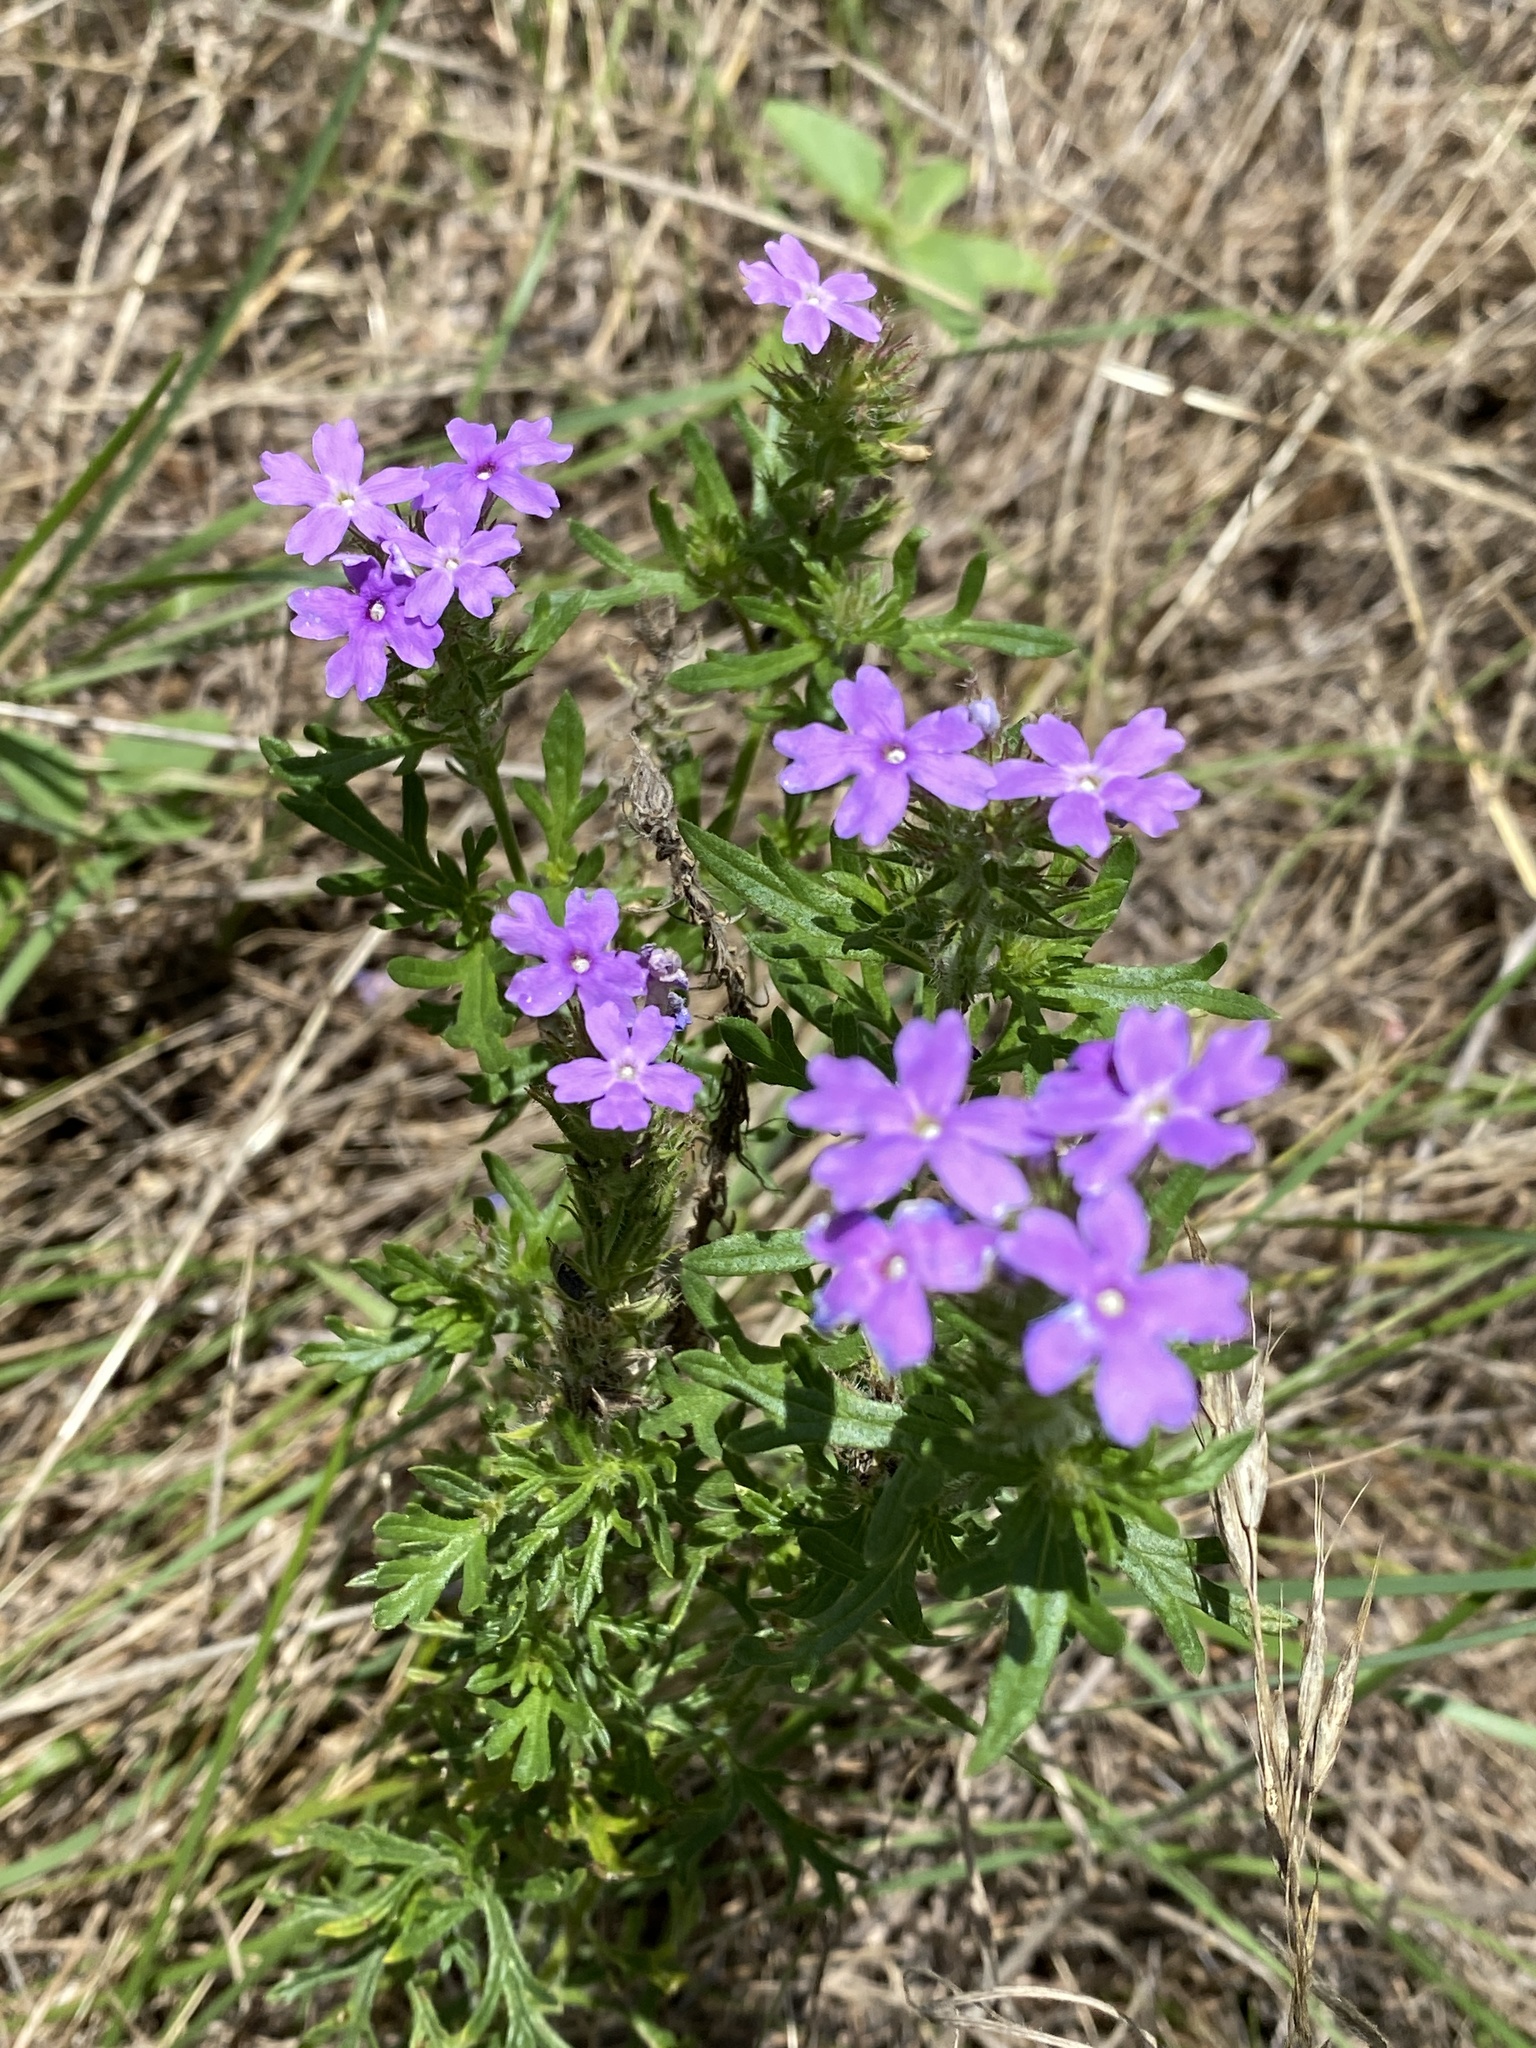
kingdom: Plantae
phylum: Tracheophyta
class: Magnoliopsida
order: Lamiales
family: Verbenaceae
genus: Verbena
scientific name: Verbena bipinnatifida
